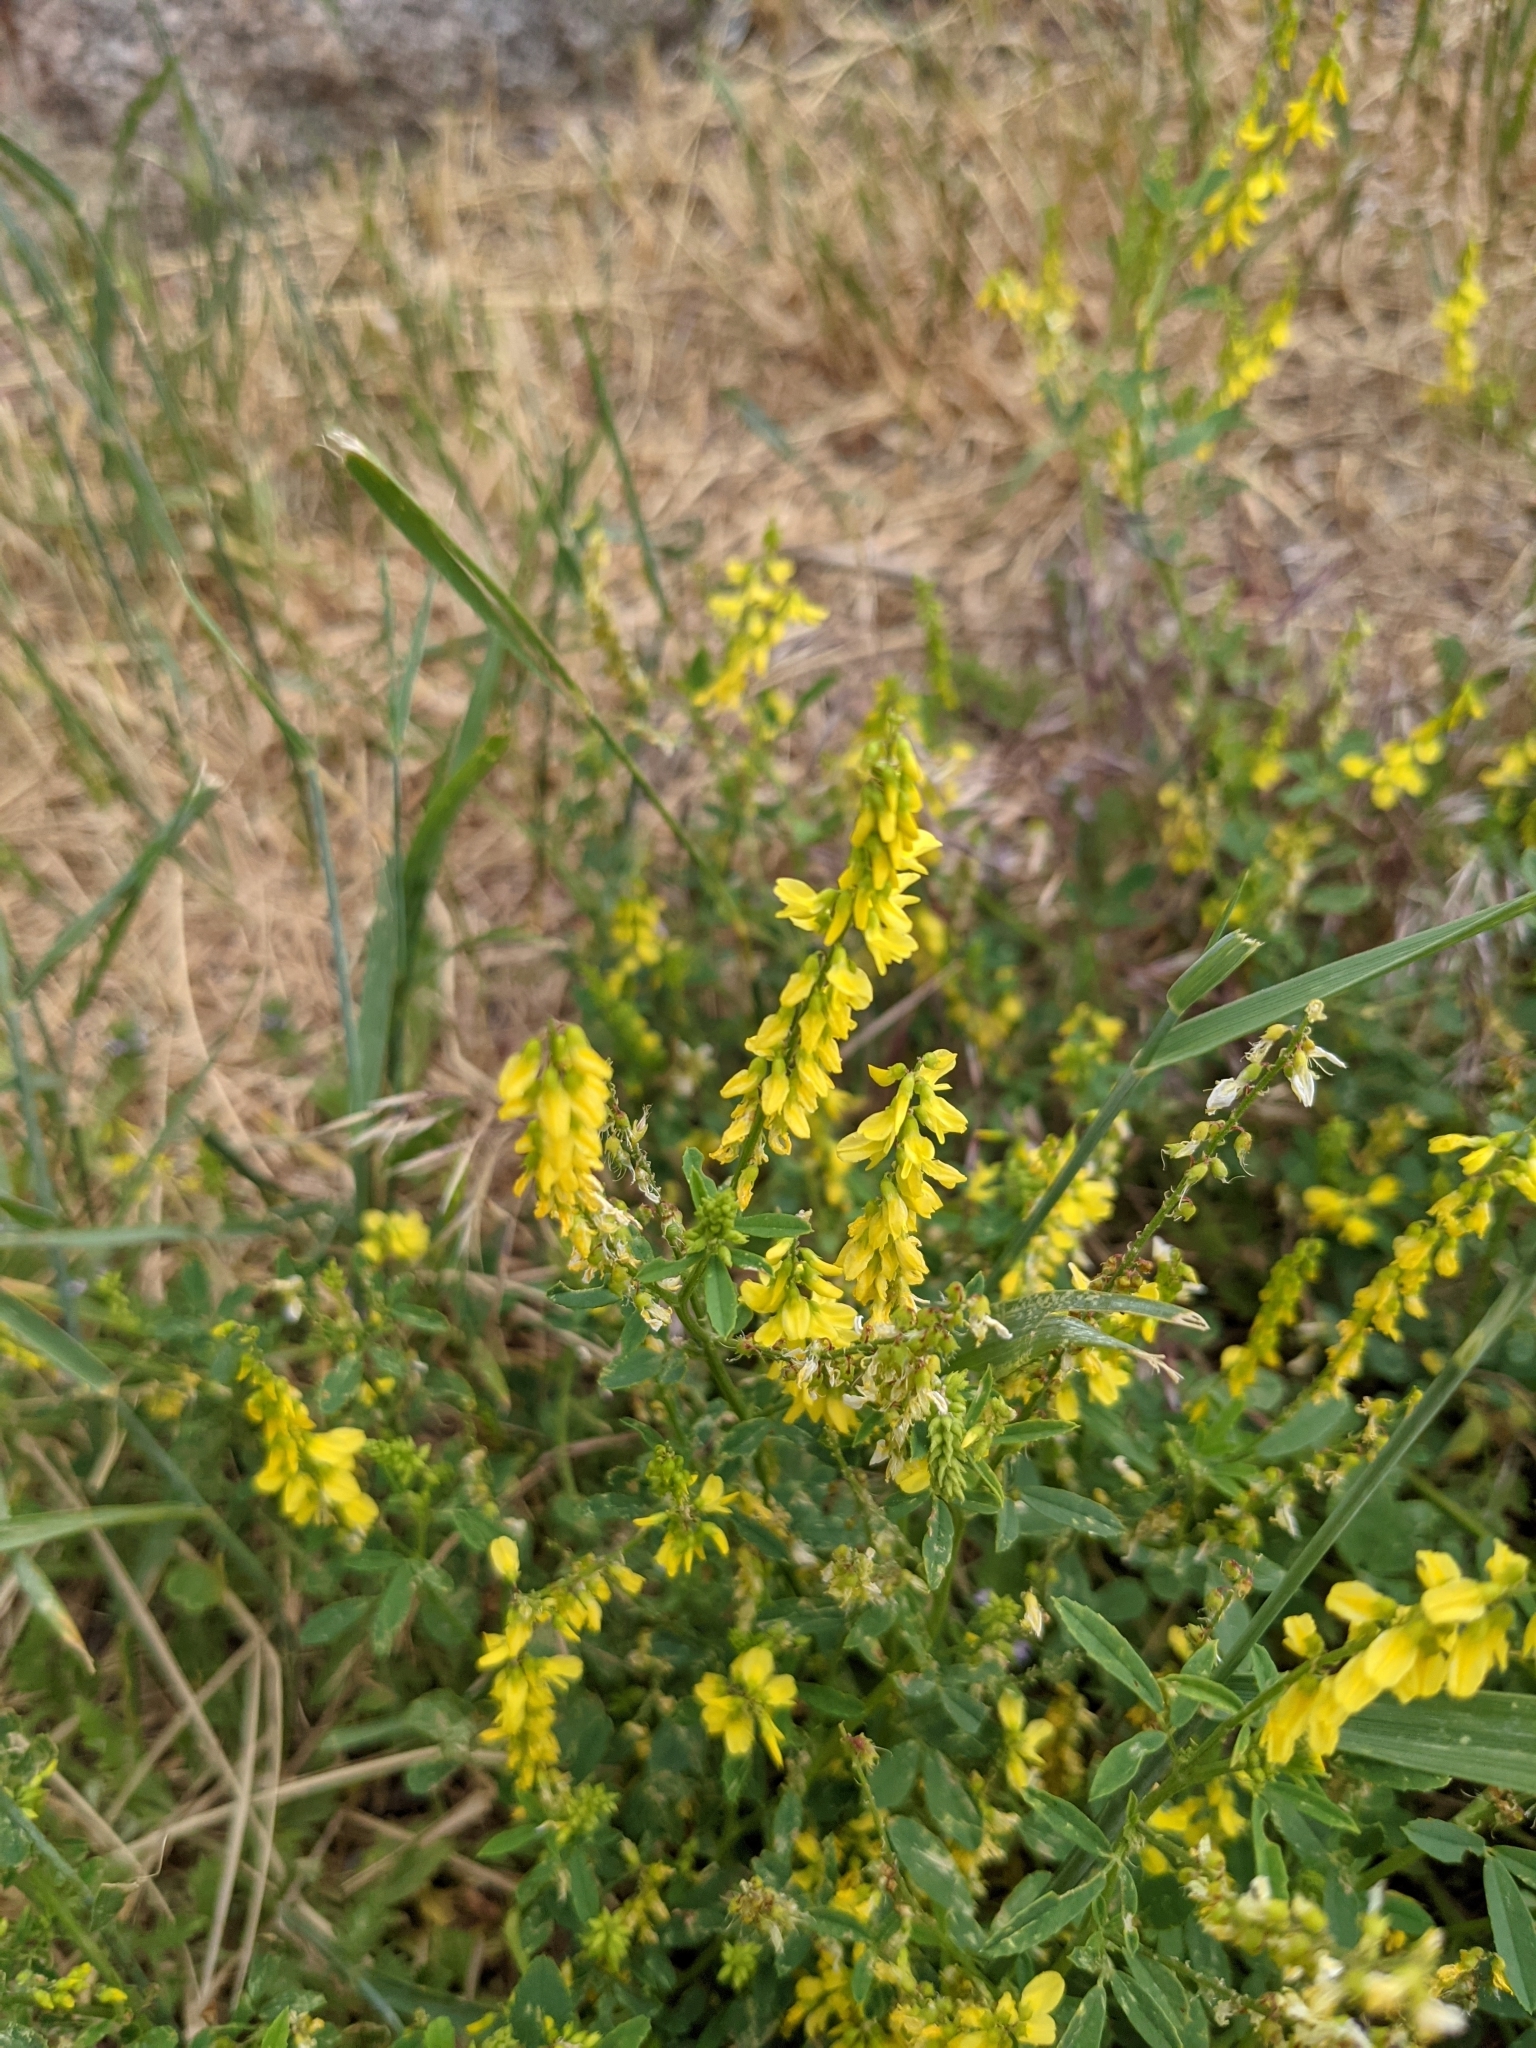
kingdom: Plantae
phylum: Tracheophyta
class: Magnoliopsida
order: Fabales
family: Fabaceae
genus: Melilotus
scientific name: Melilotus officinalis
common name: Sweetclover
